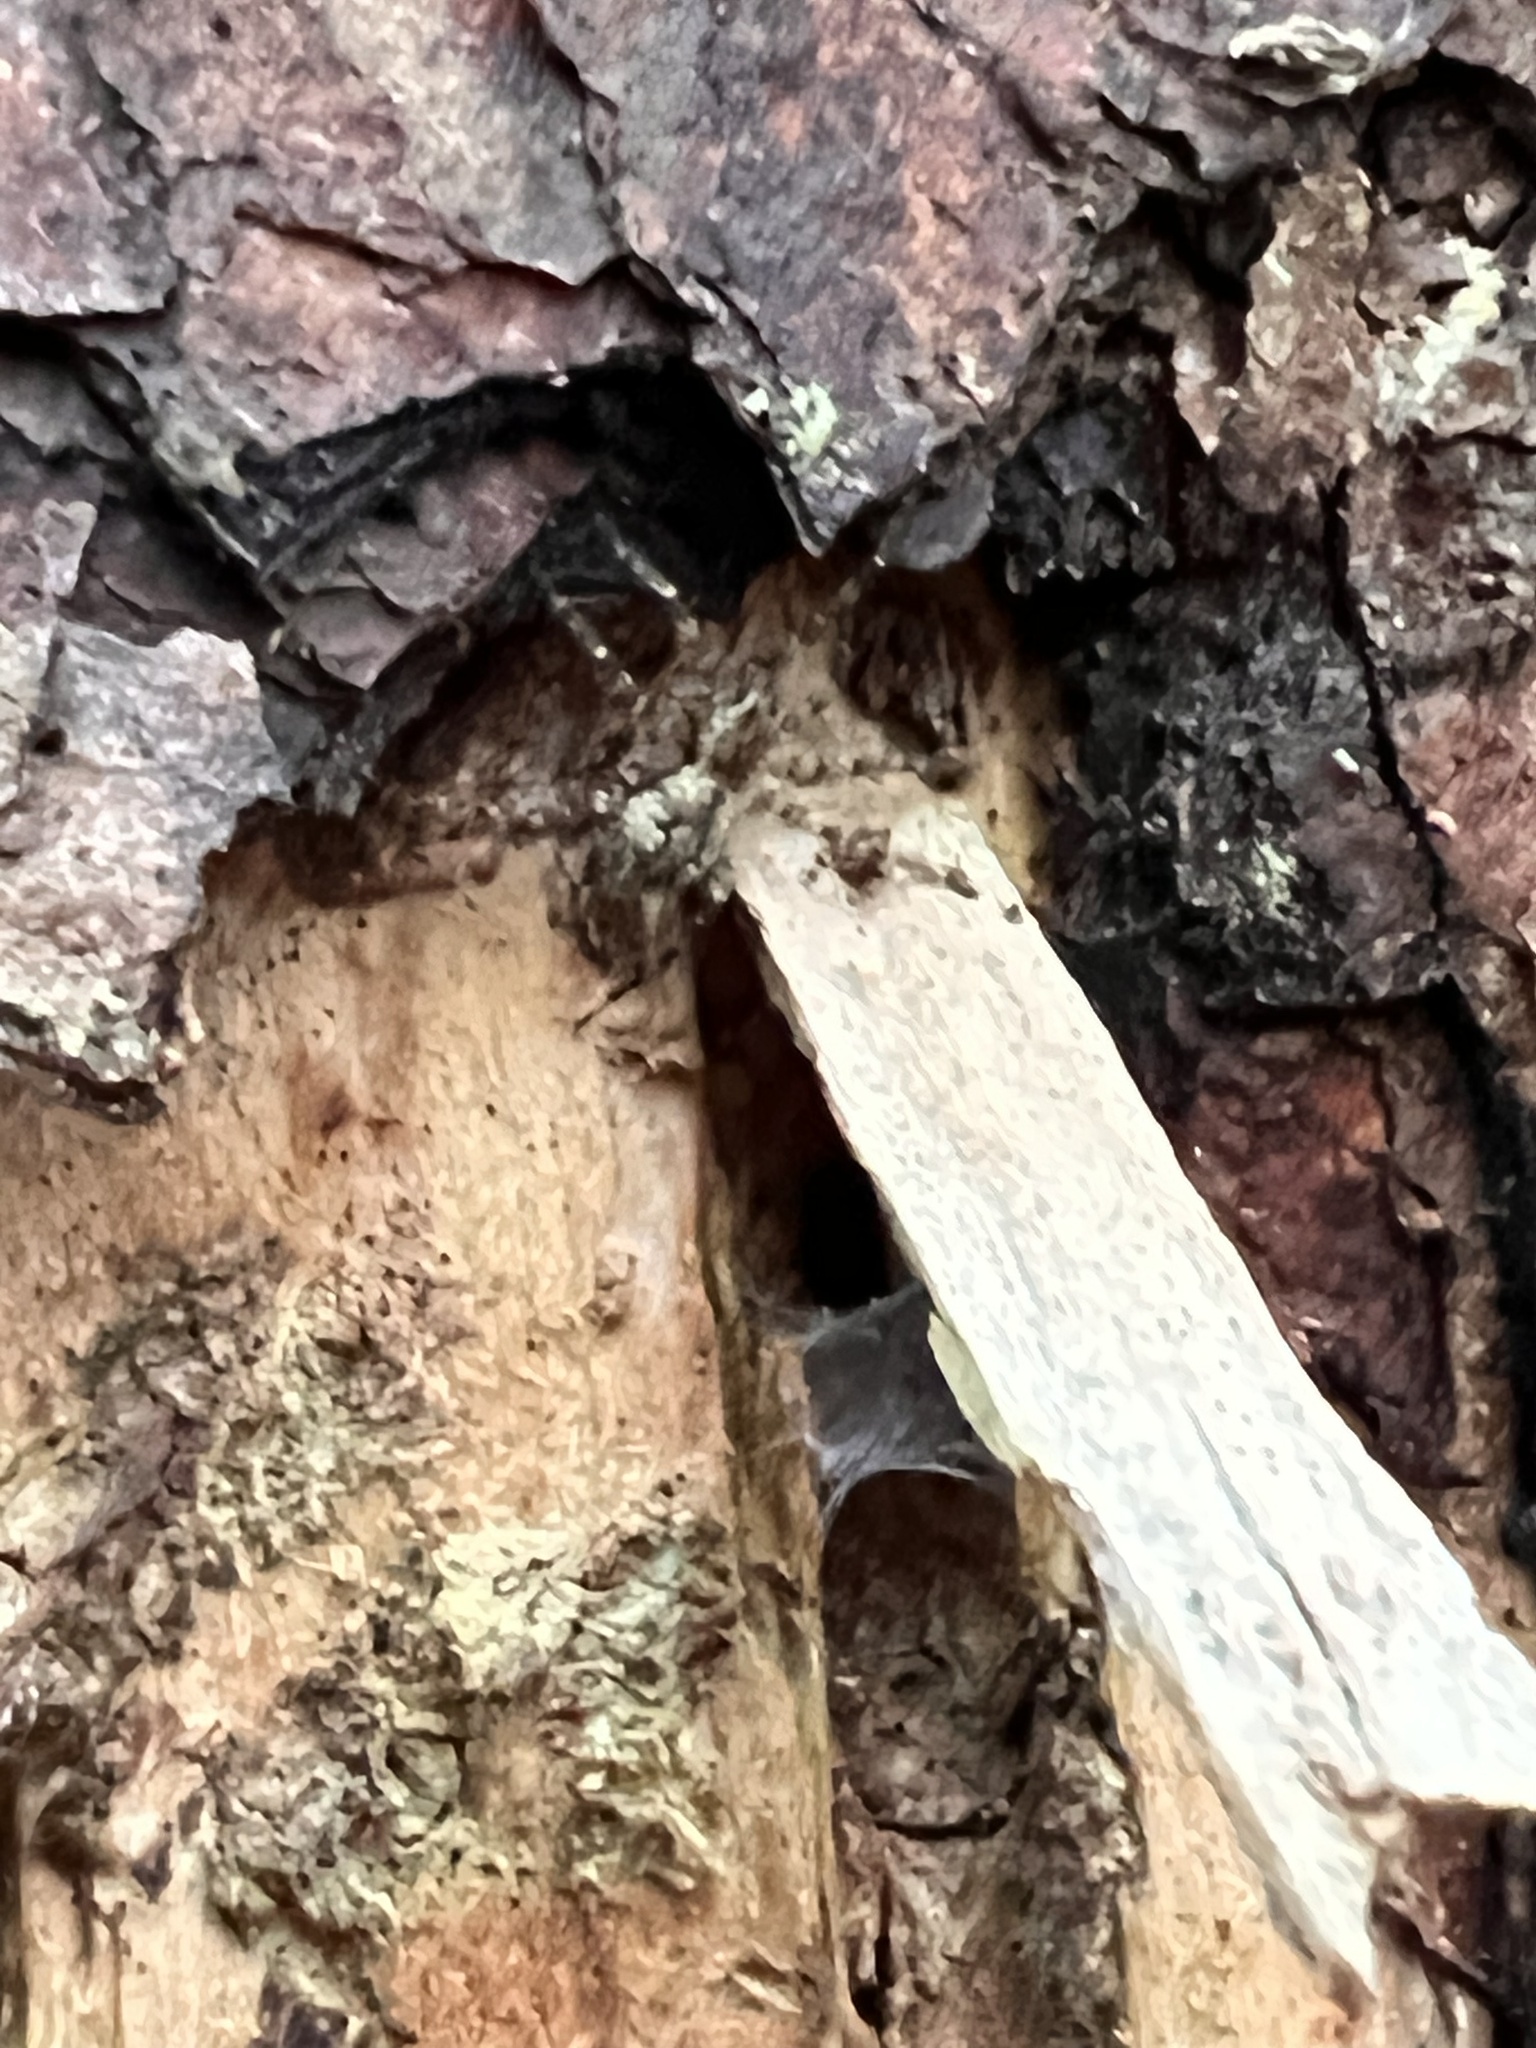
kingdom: Animalia
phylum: Arthropoda
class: Arachnida
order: Araneae
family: Pisauridae
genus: Dolomedes
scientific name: Dolomedes albineus
